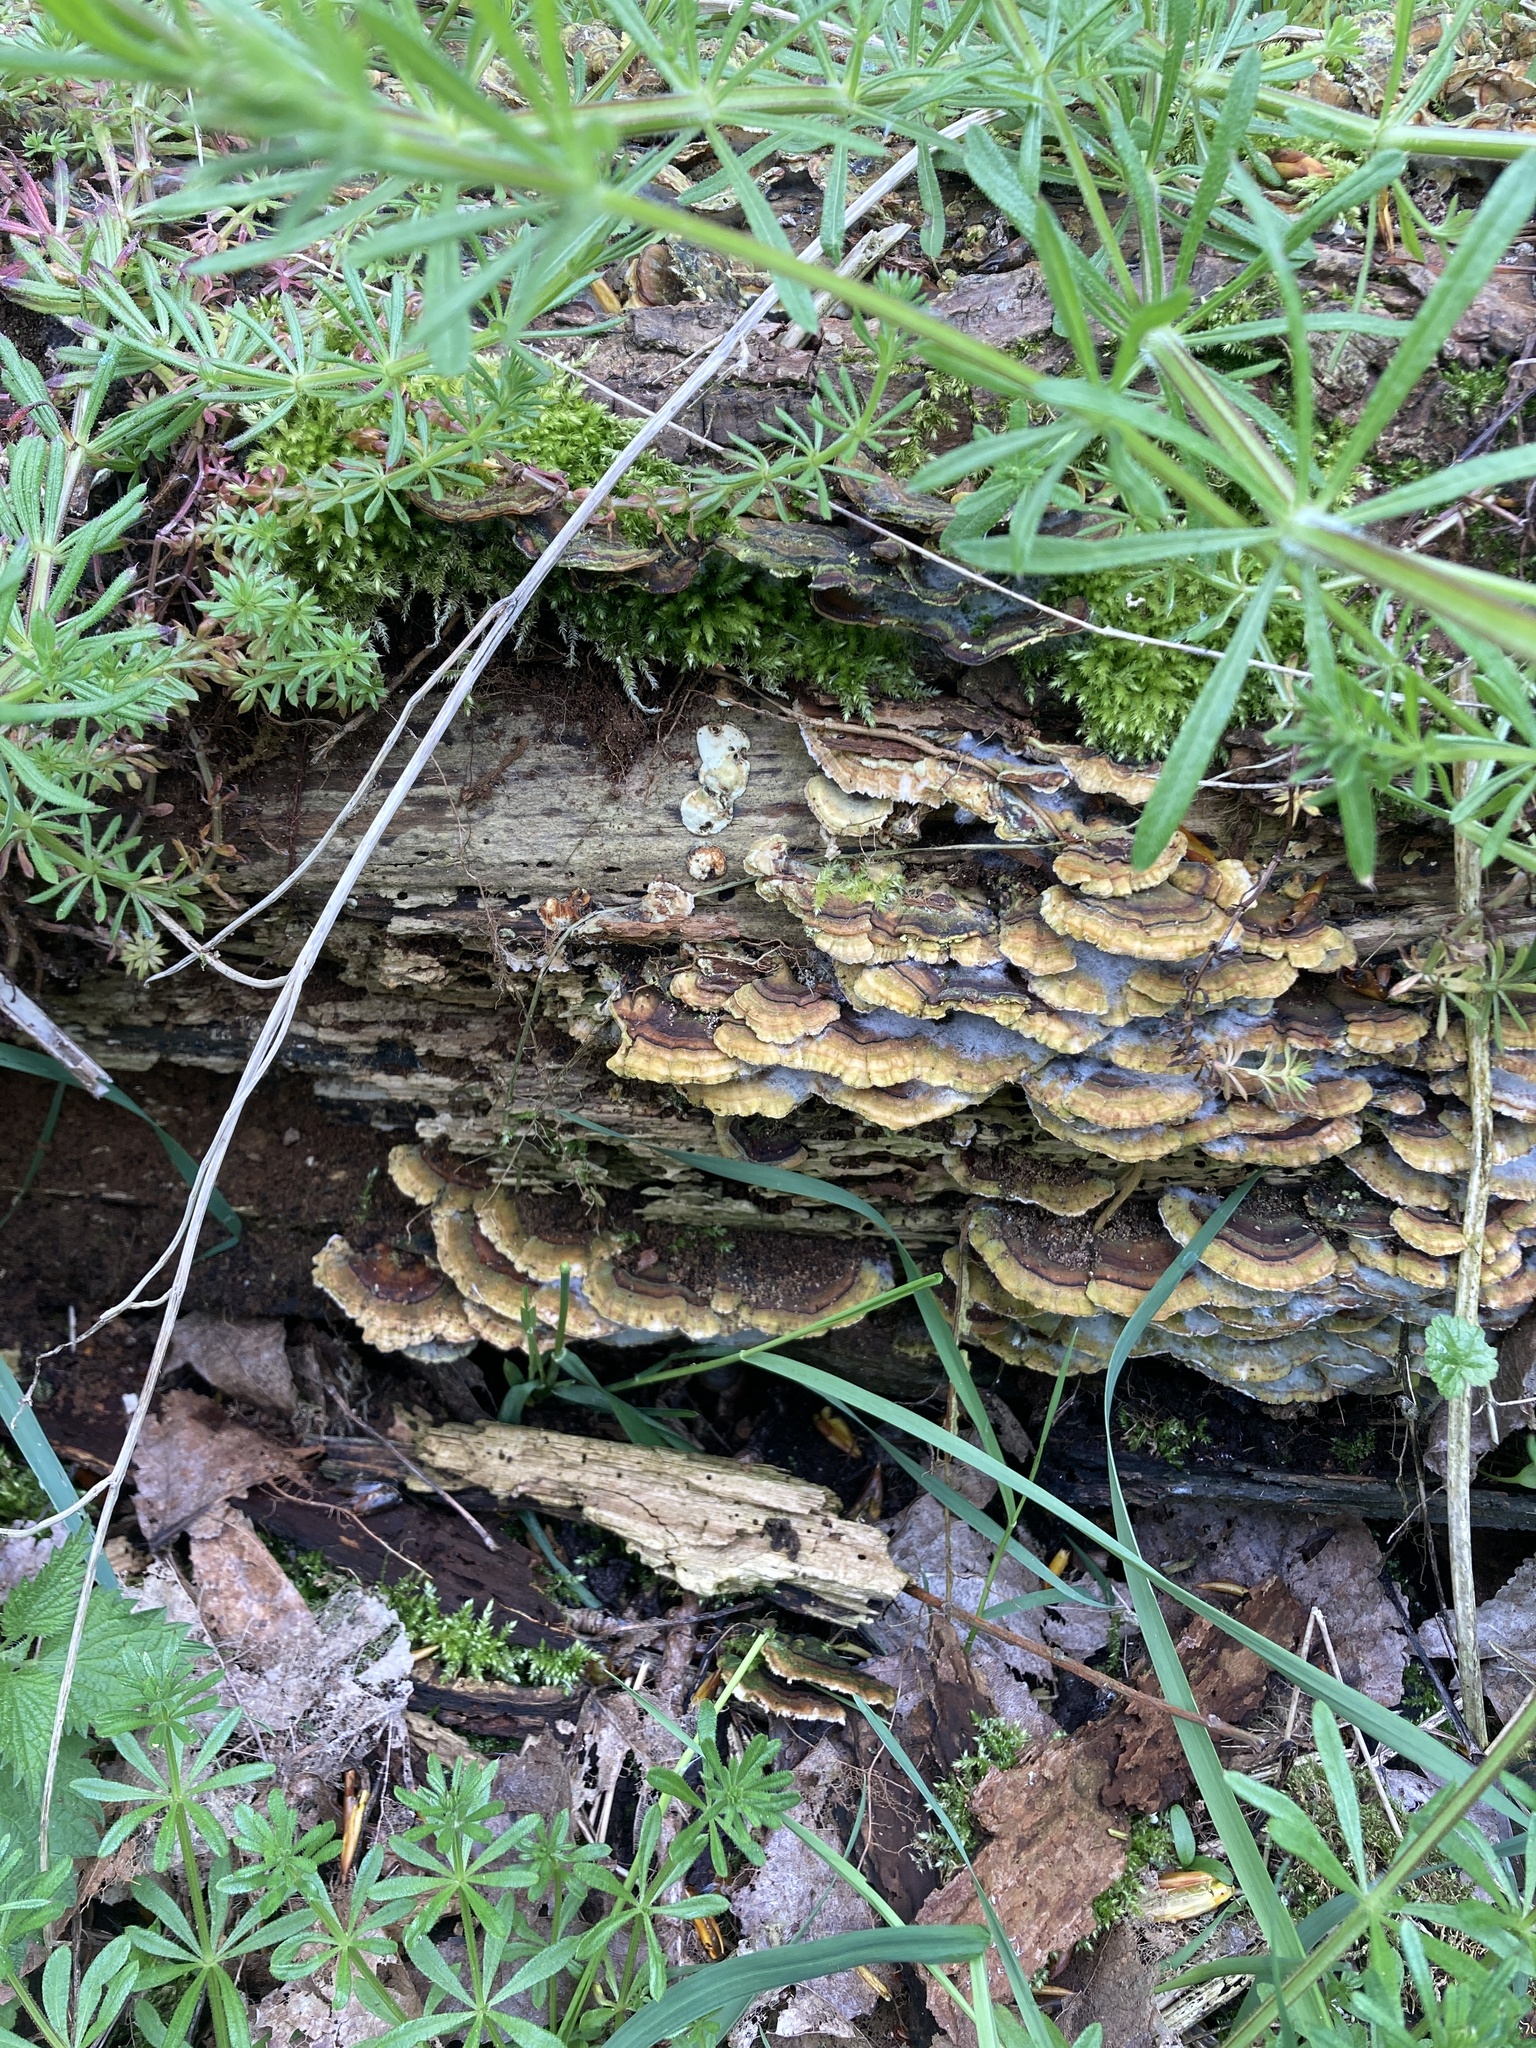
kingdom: Fungi
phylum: Basidiomycota
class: Agaricomycetes
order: Polyporales
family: Polyporaceae
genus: Trametes
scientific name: Trametes versicolor
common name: Turkeytail
